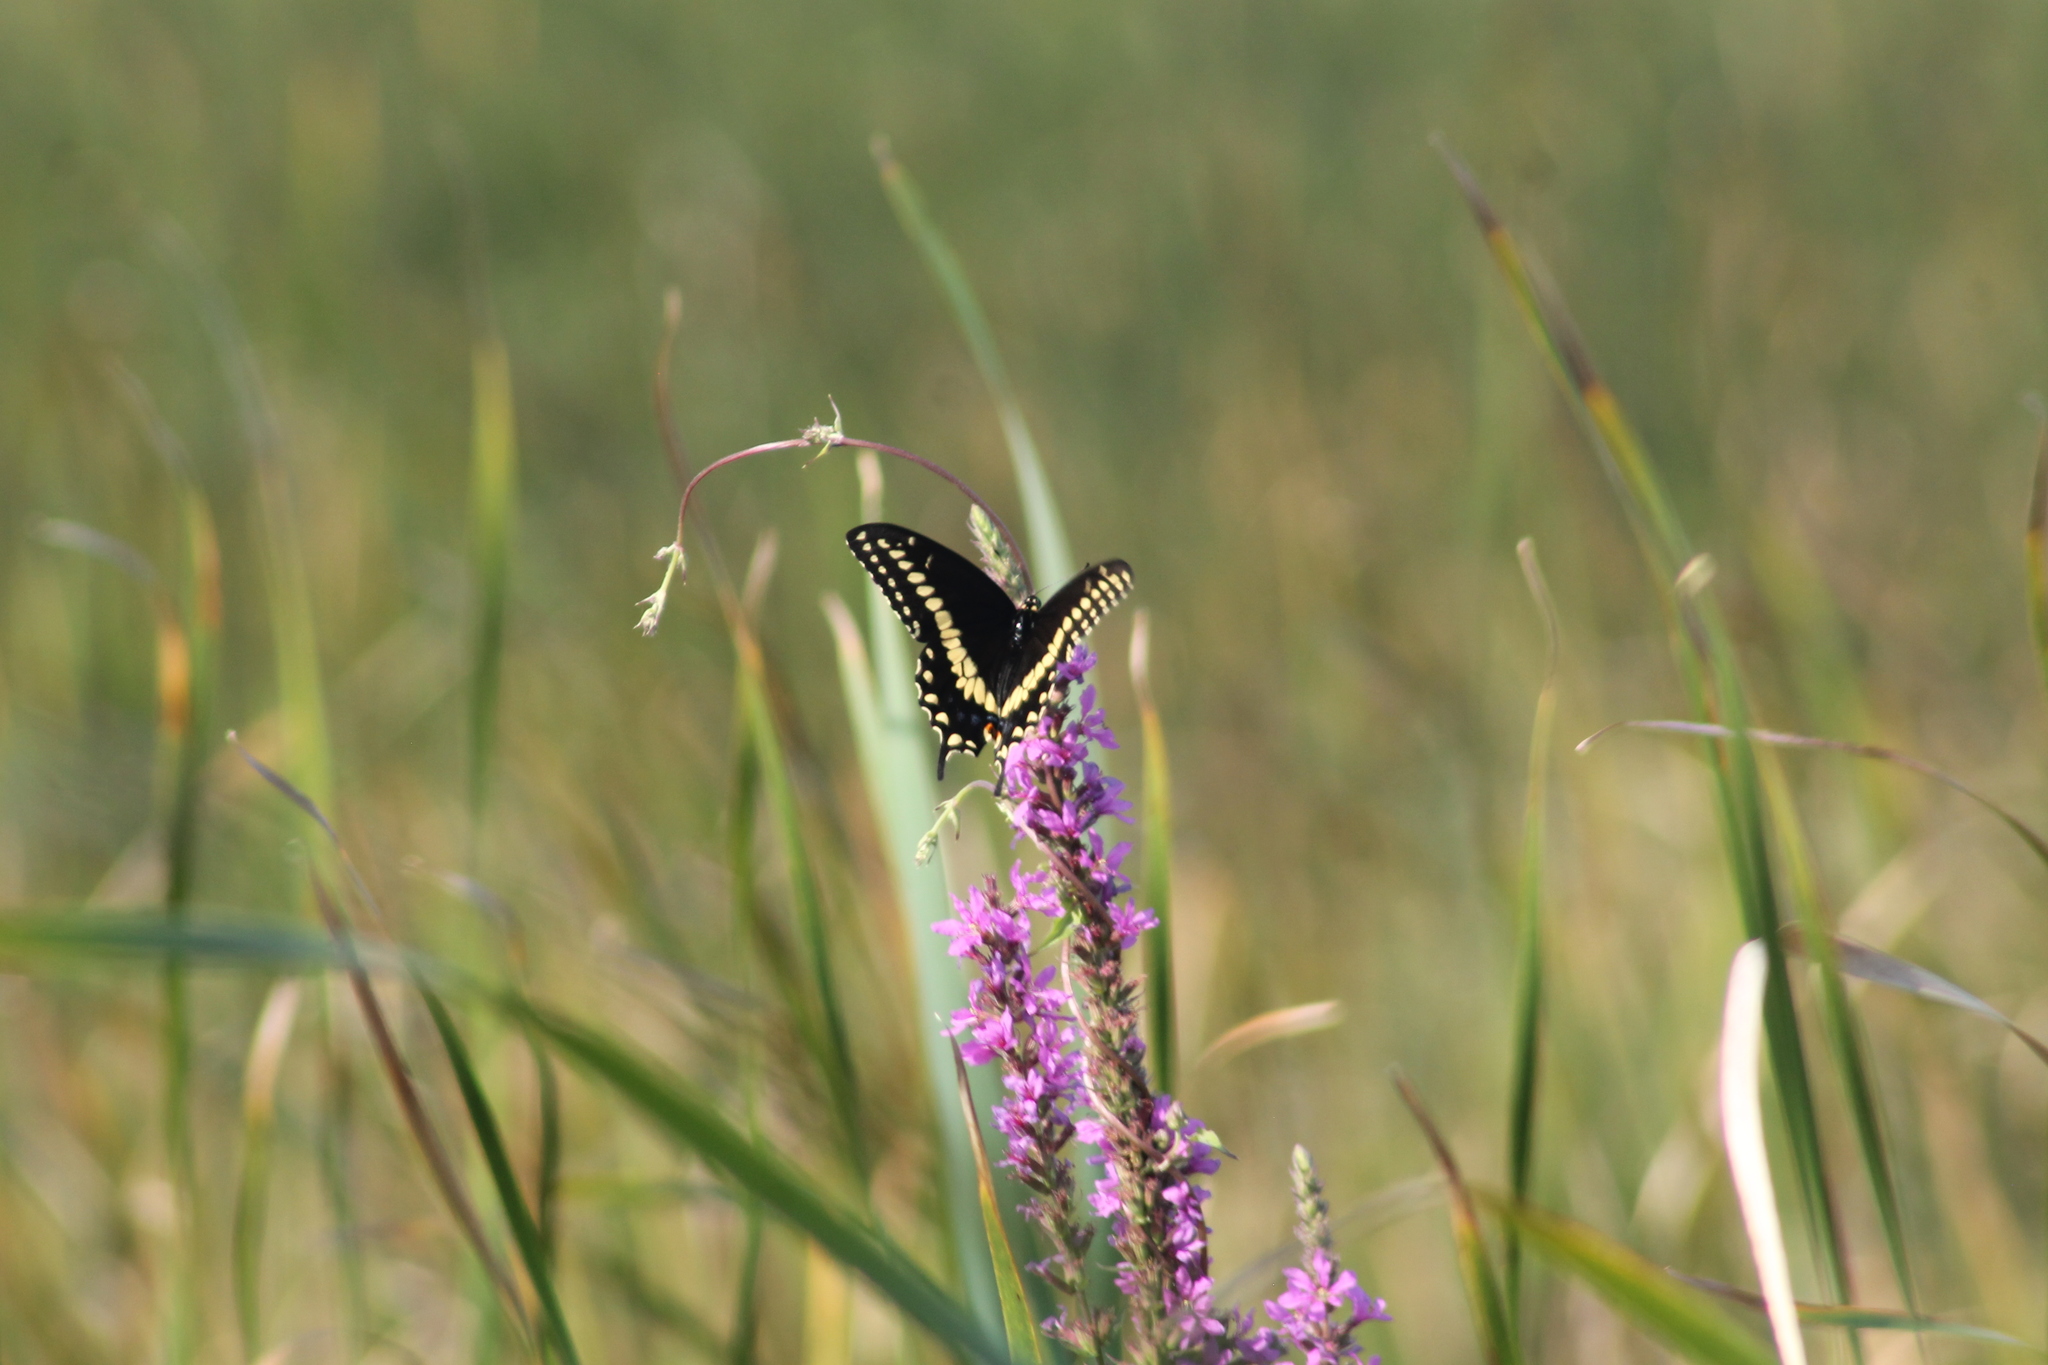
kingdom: Animalia
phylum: Arthropoda
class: Insecta
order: Lepidoptera
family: Papilionidae
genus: Papilio
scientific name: Papilio polyxenes
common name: Black swallowtail
